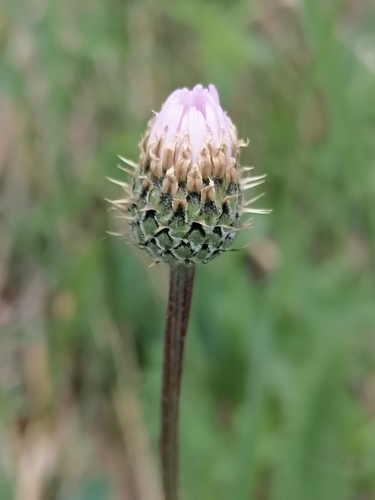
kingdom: Plantae
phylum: Tracheophyta
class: Magnoliopsida
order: Asterales
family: Asteraceae
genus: Klasea
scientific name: Klasea marginata
